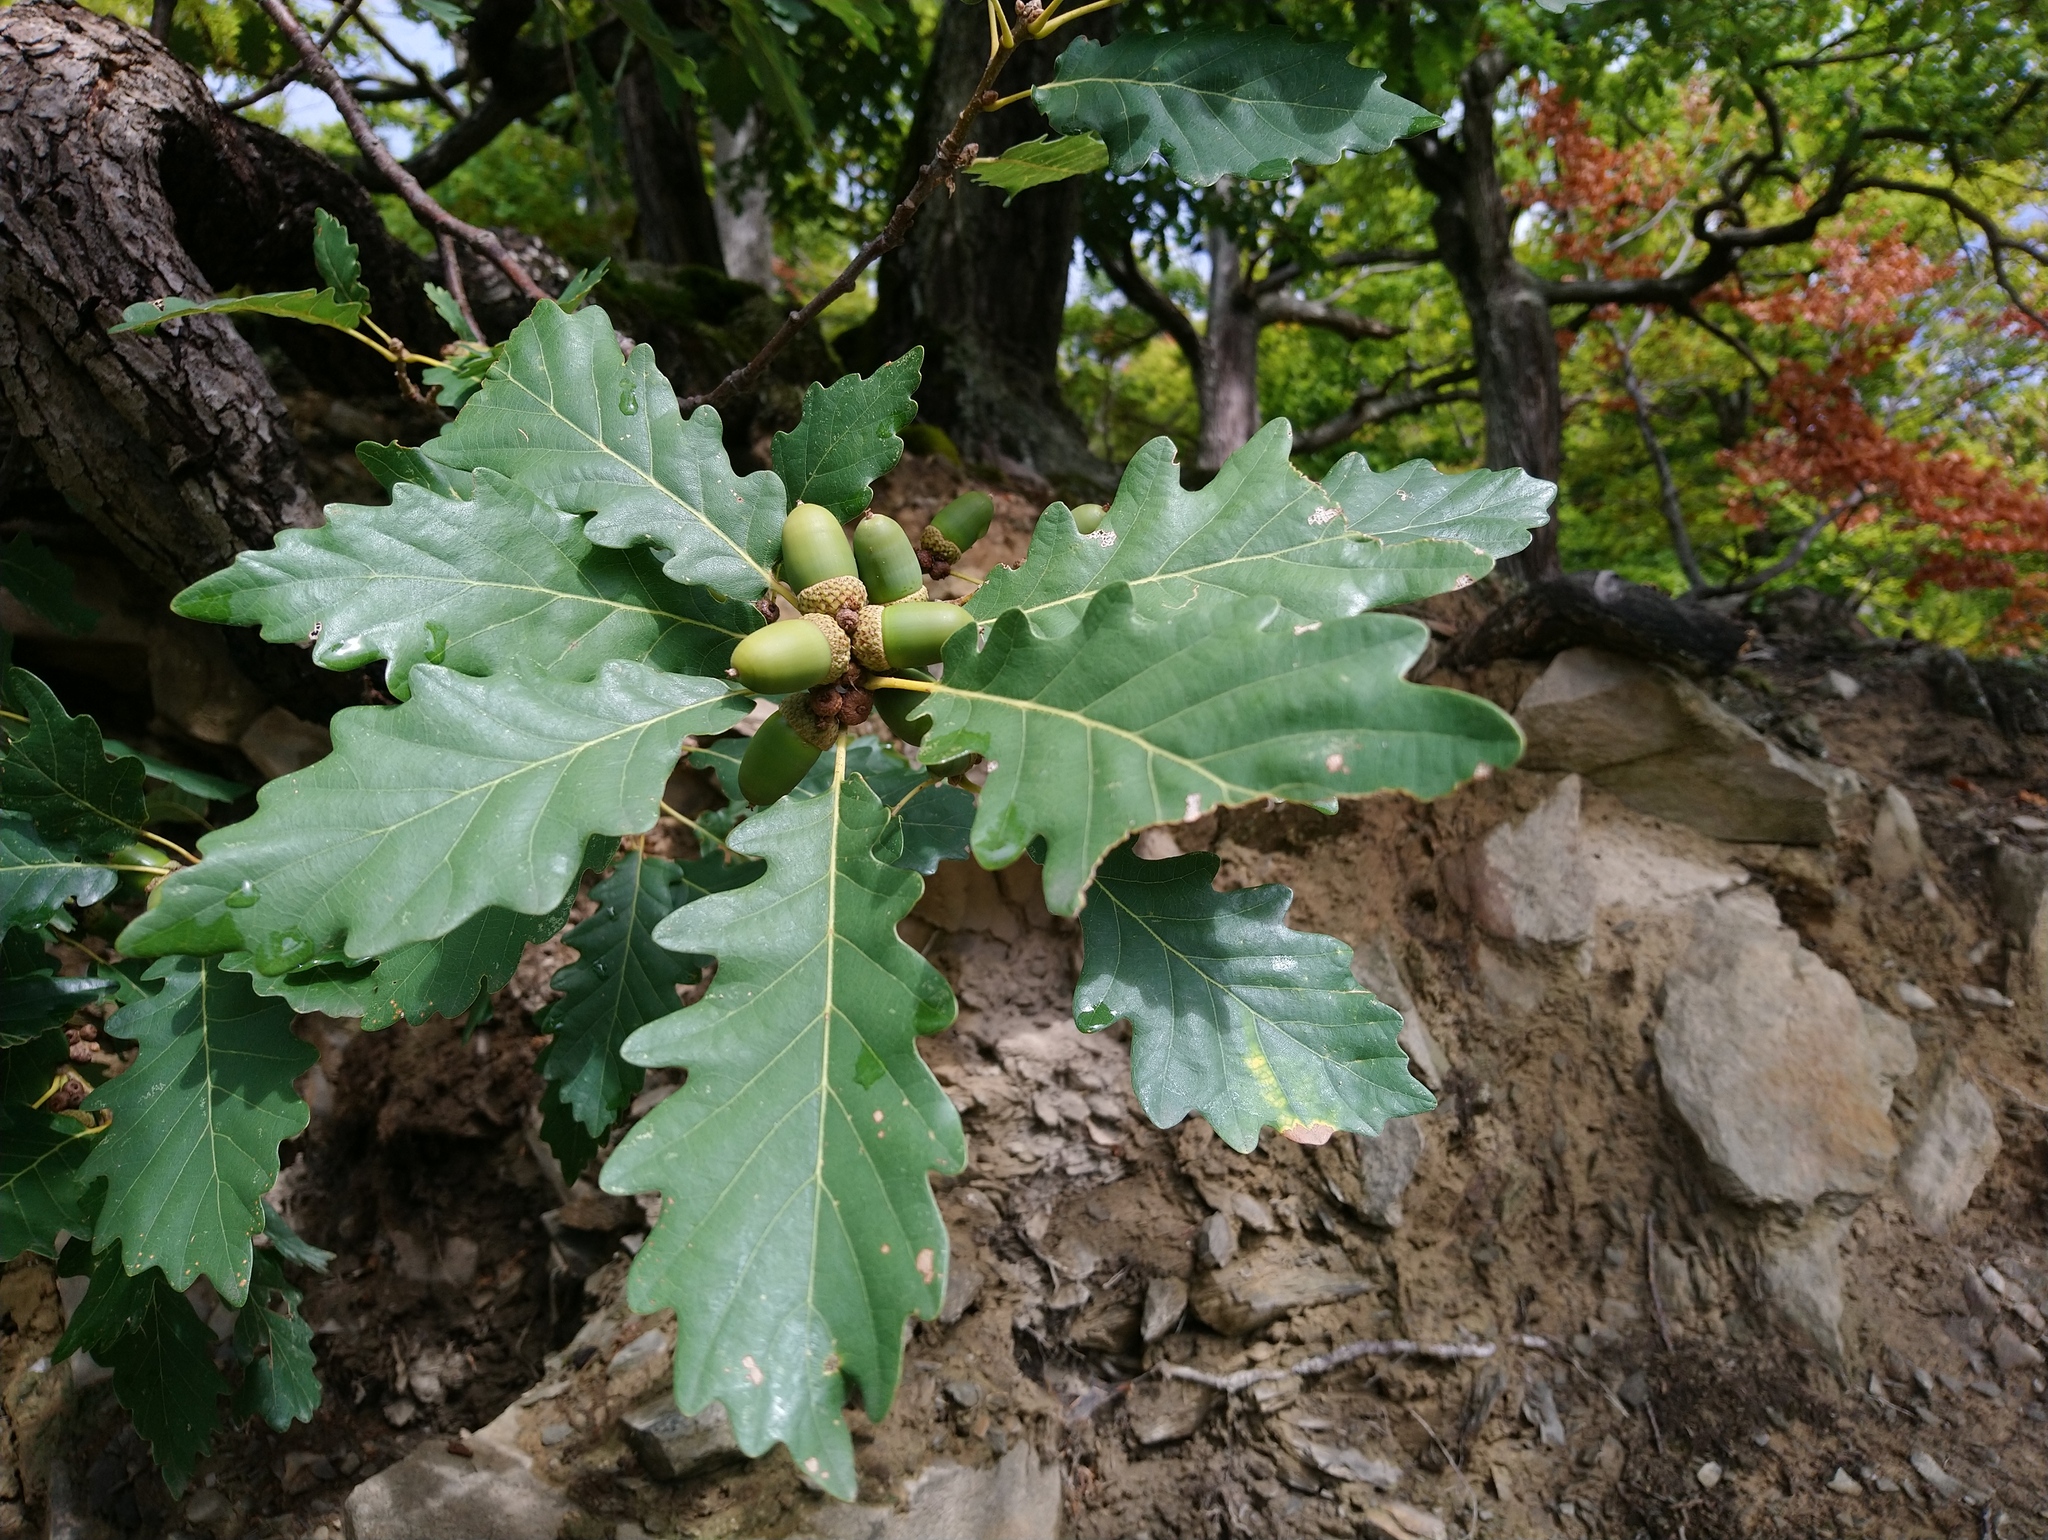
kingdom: Plantae
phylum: Tracheophyta
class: Magnoliopsida
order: Fagales
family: Fagaceae
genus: Quercus
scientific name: Quercus petraea
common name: Sessile oak
